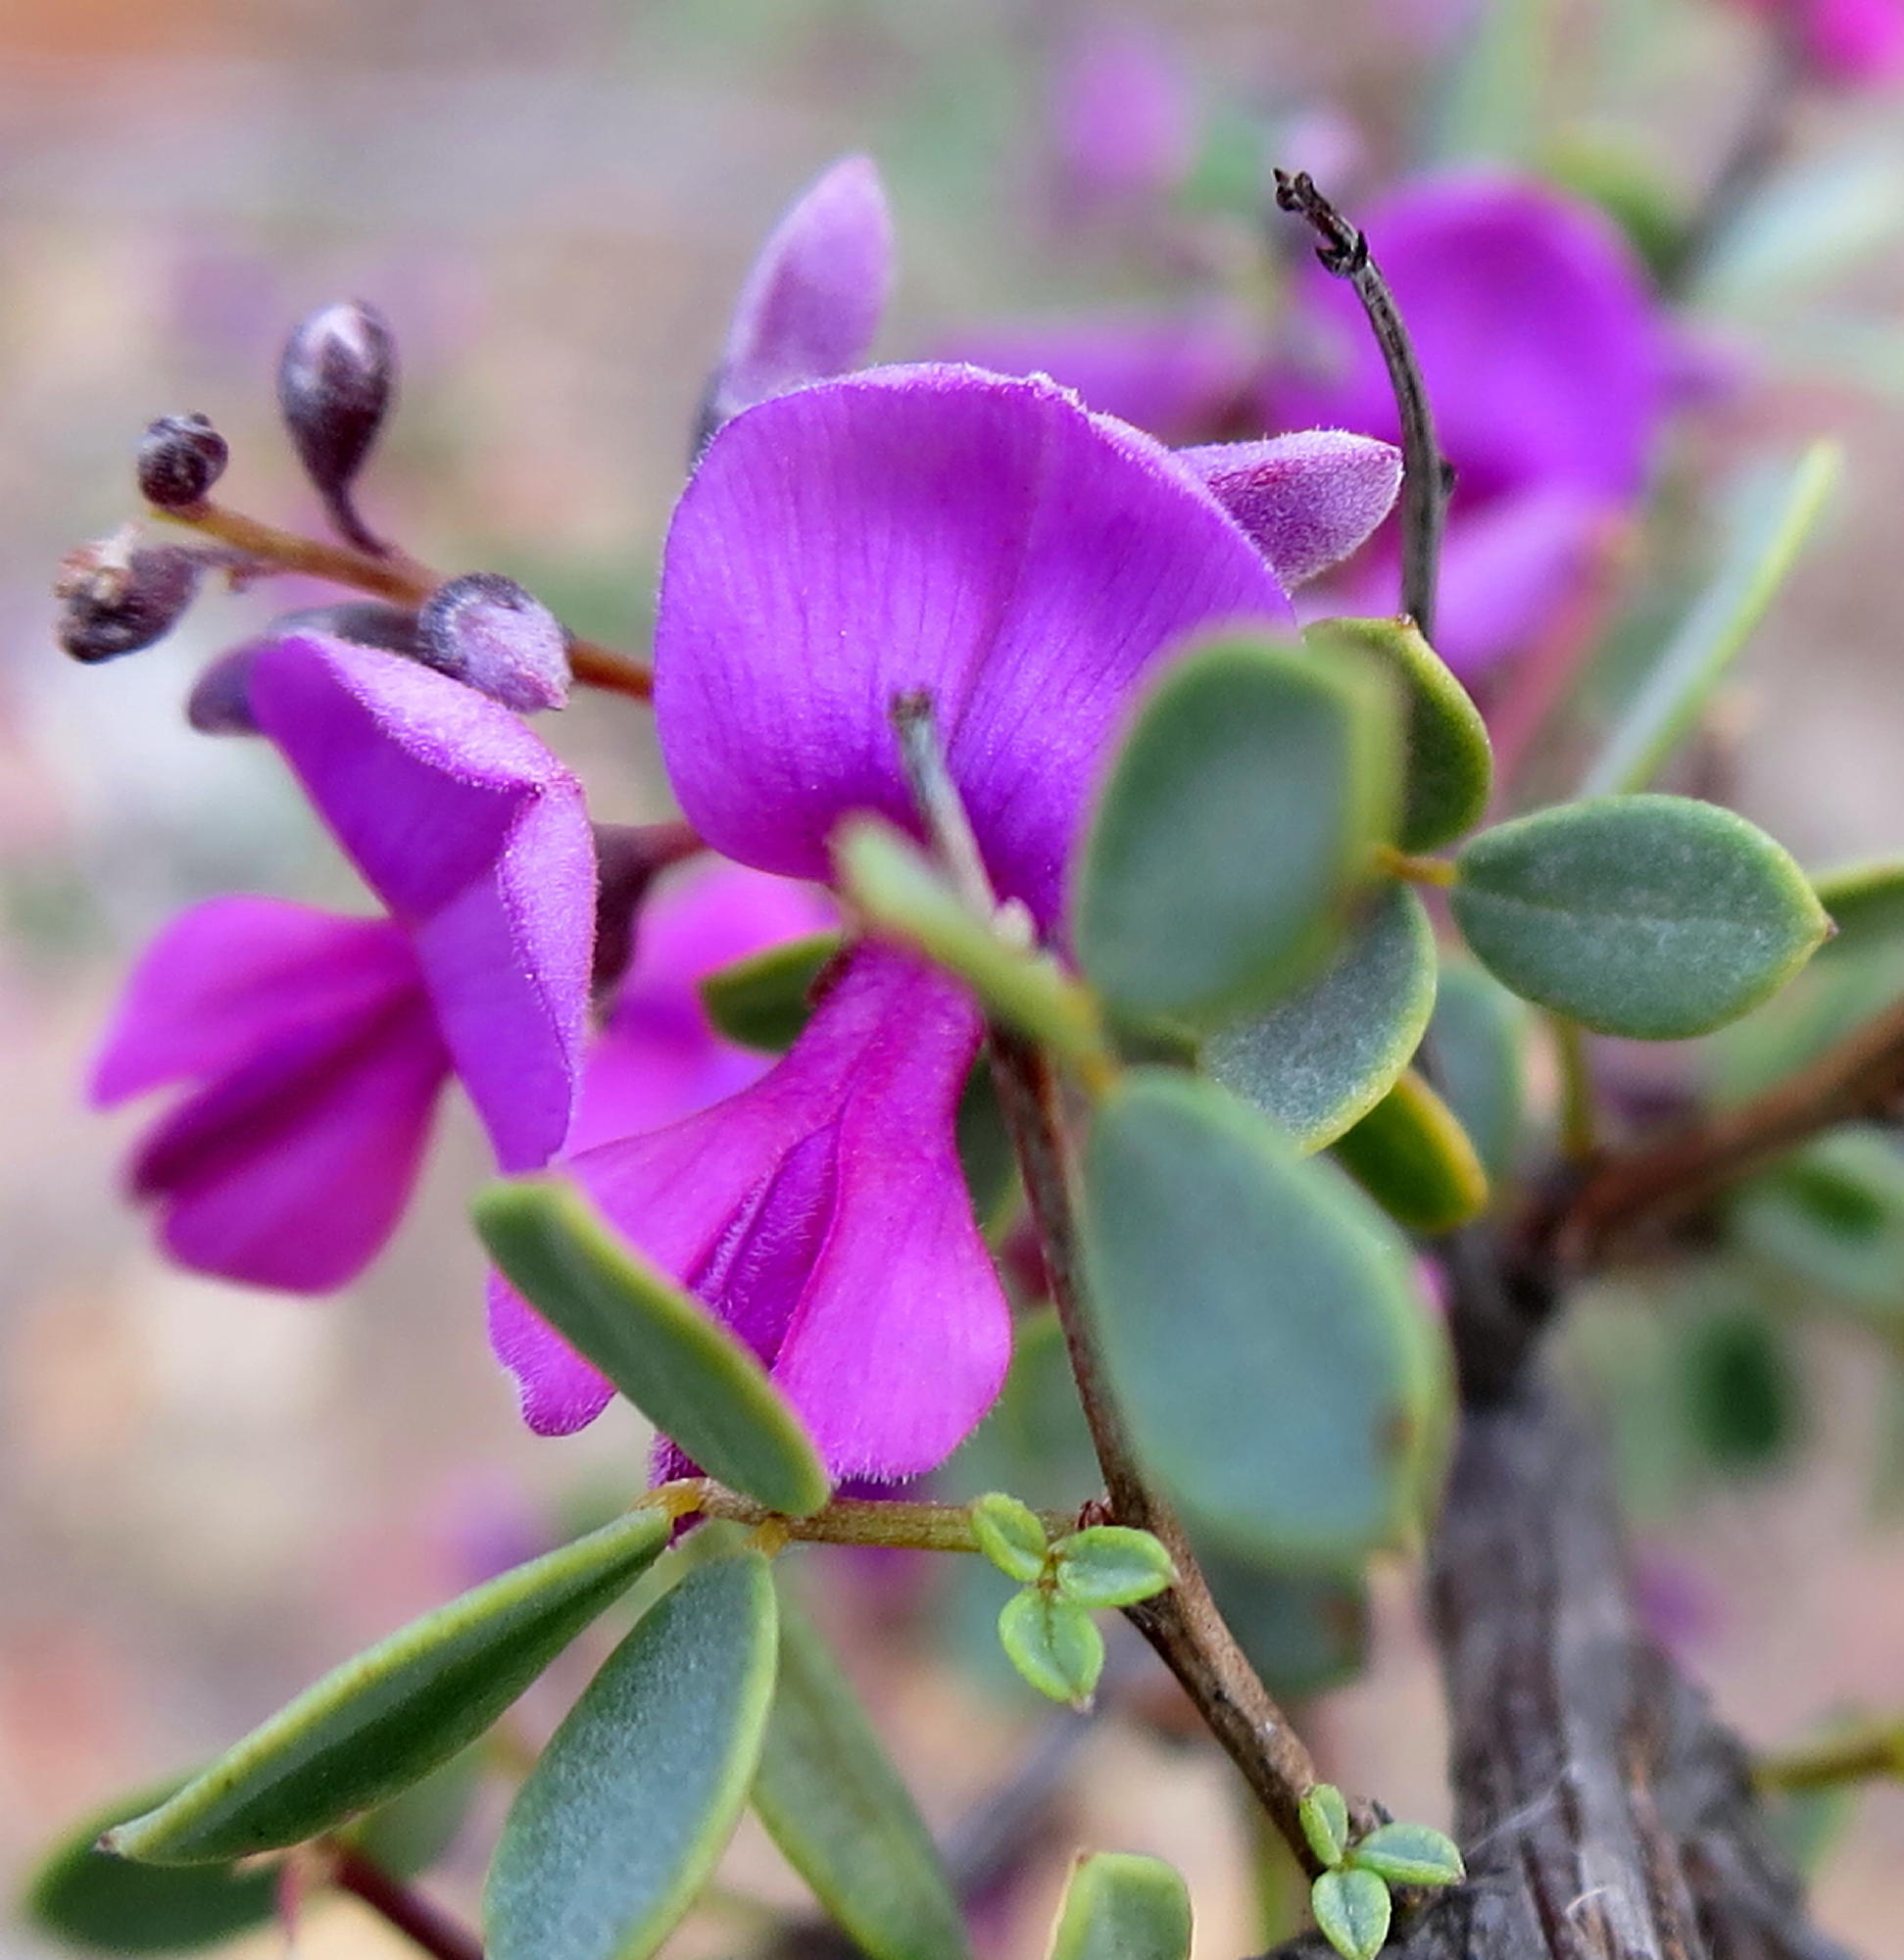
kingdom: Plantae
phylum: Tracheophyta
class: Magnoliopsida
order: Fabales
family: Fabaceae
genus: Indigofera
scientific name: Indigofera denudata
